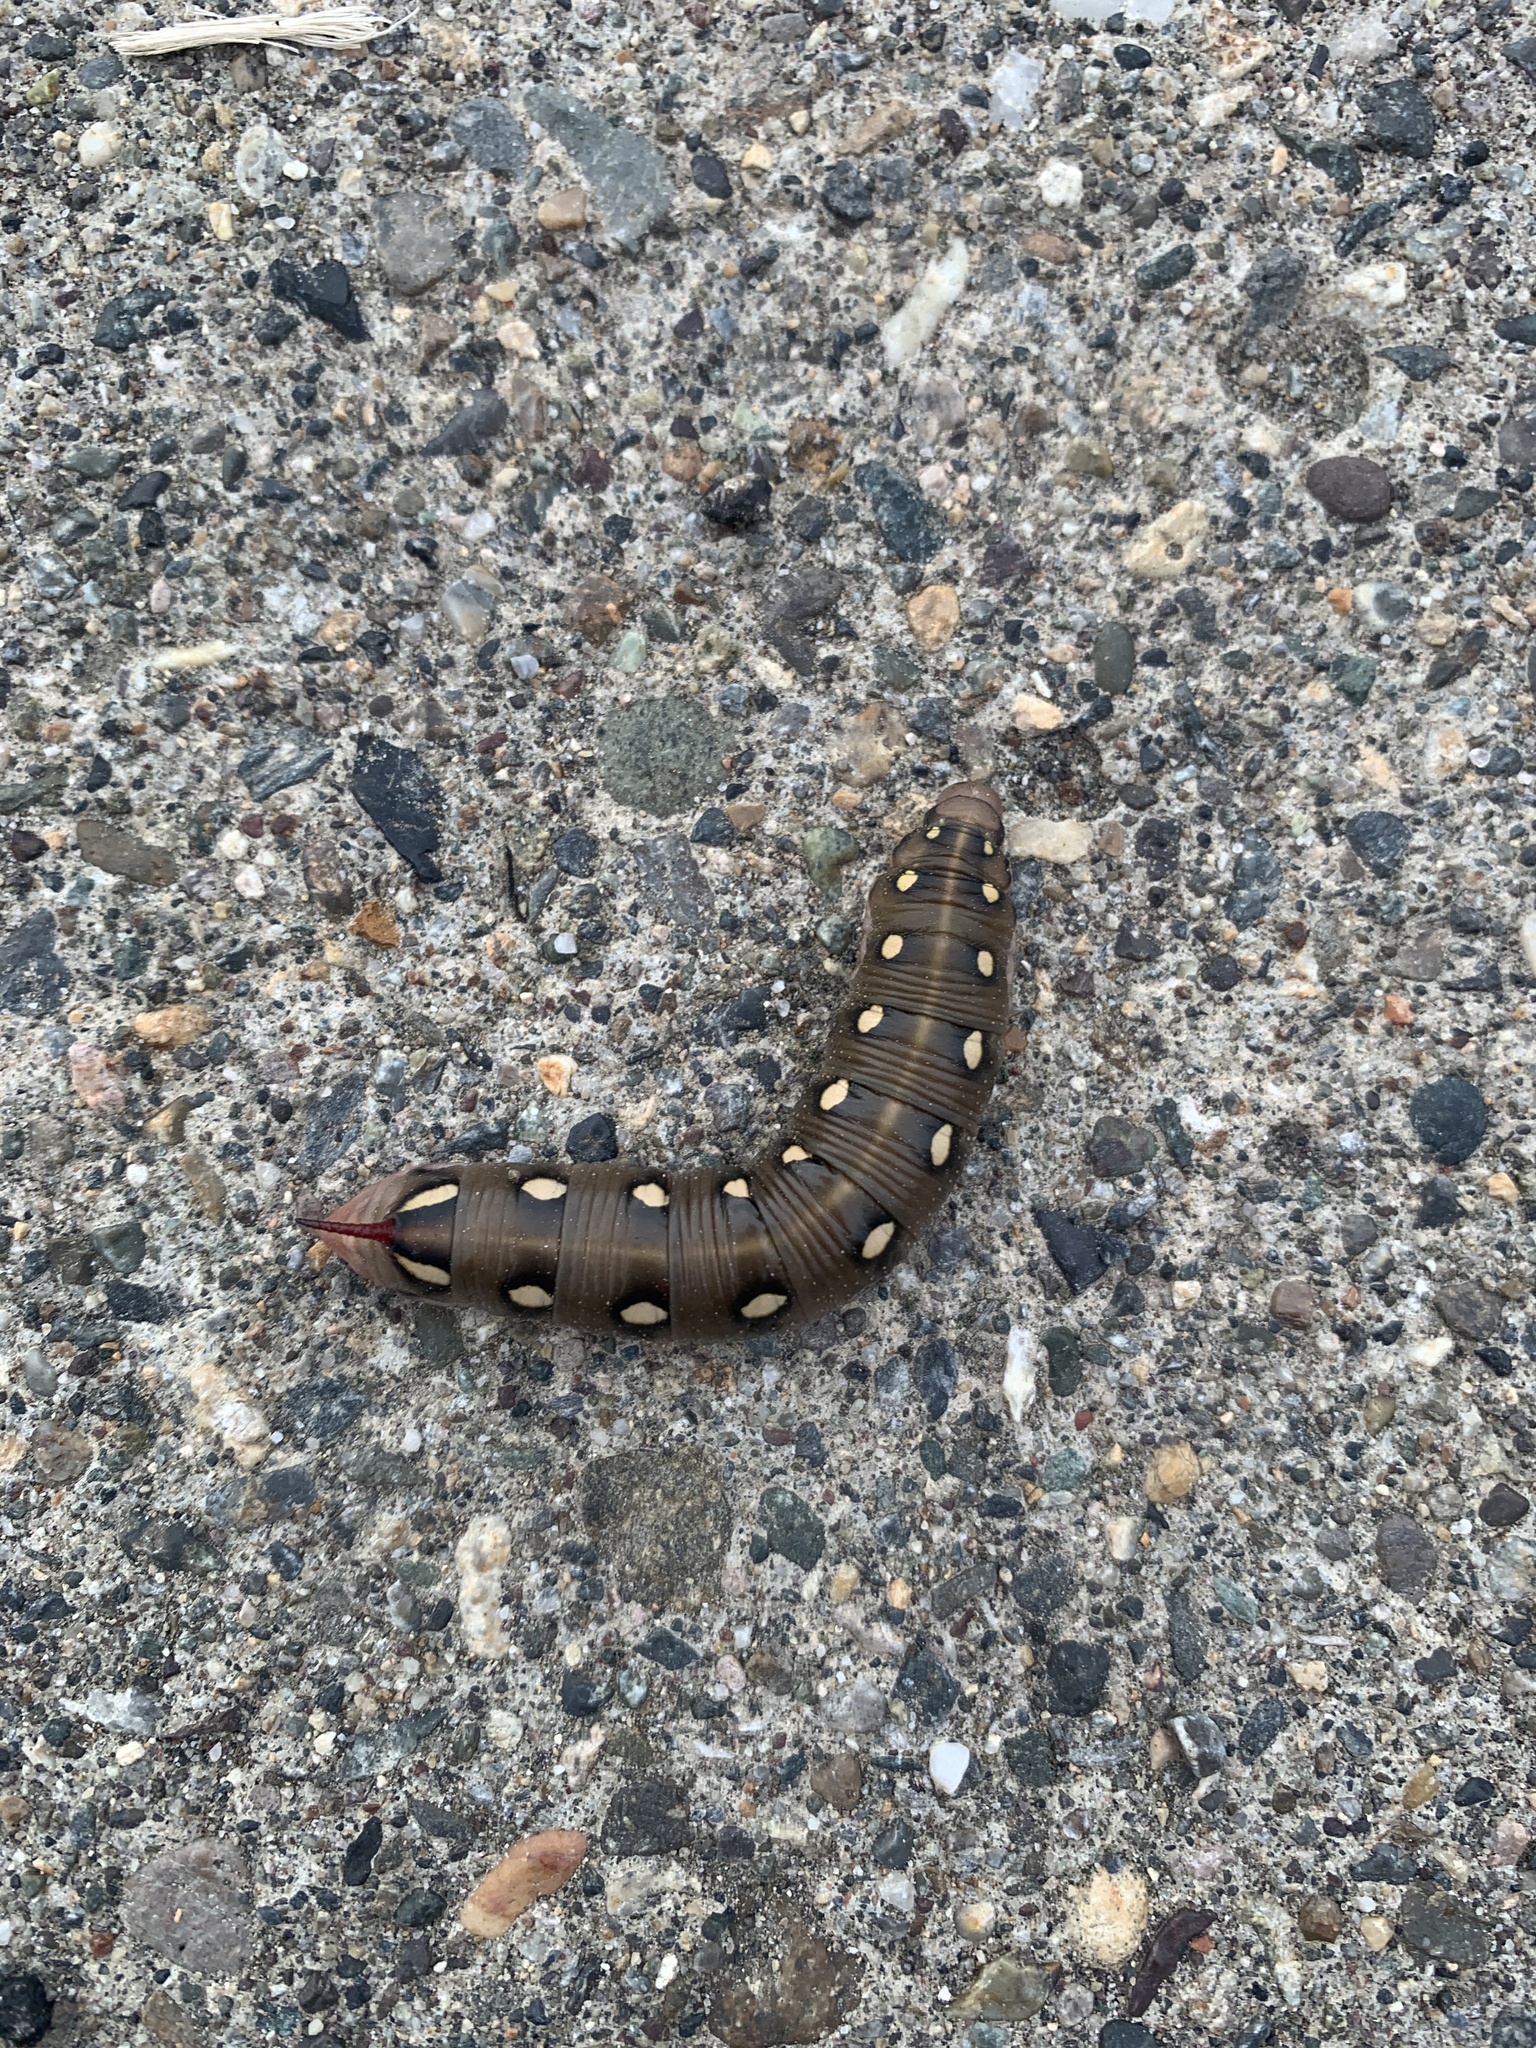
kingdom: Animalia
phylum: Arthropoda
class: Insecta
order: Lepidoptera
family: Sphingidae
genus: Hyles
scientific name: Hyles gallii
